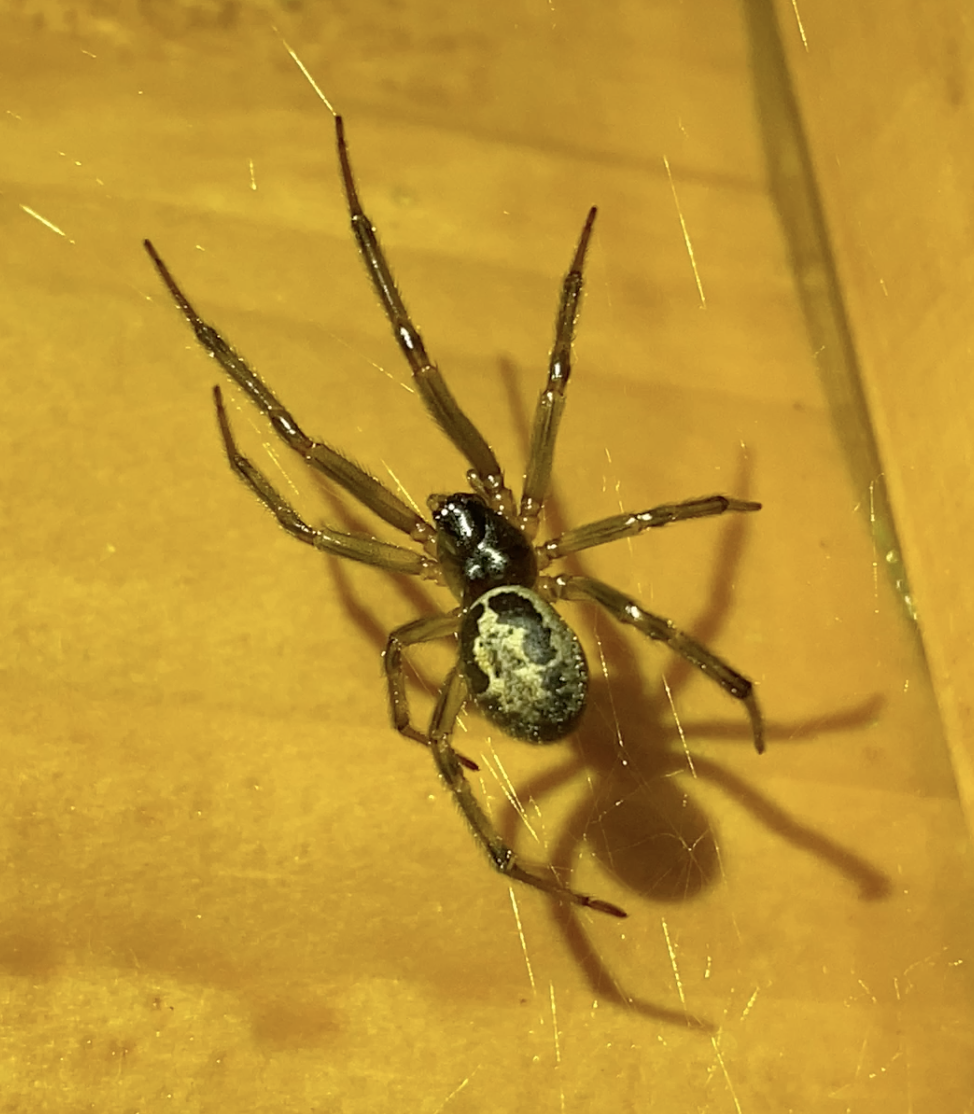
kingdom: Animalia
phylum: Arthropoda
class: Arachnida
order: Araneae
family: Theridiidae
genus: Steatoda
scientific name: Steatoda nobilis
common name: Cobweb weaver
